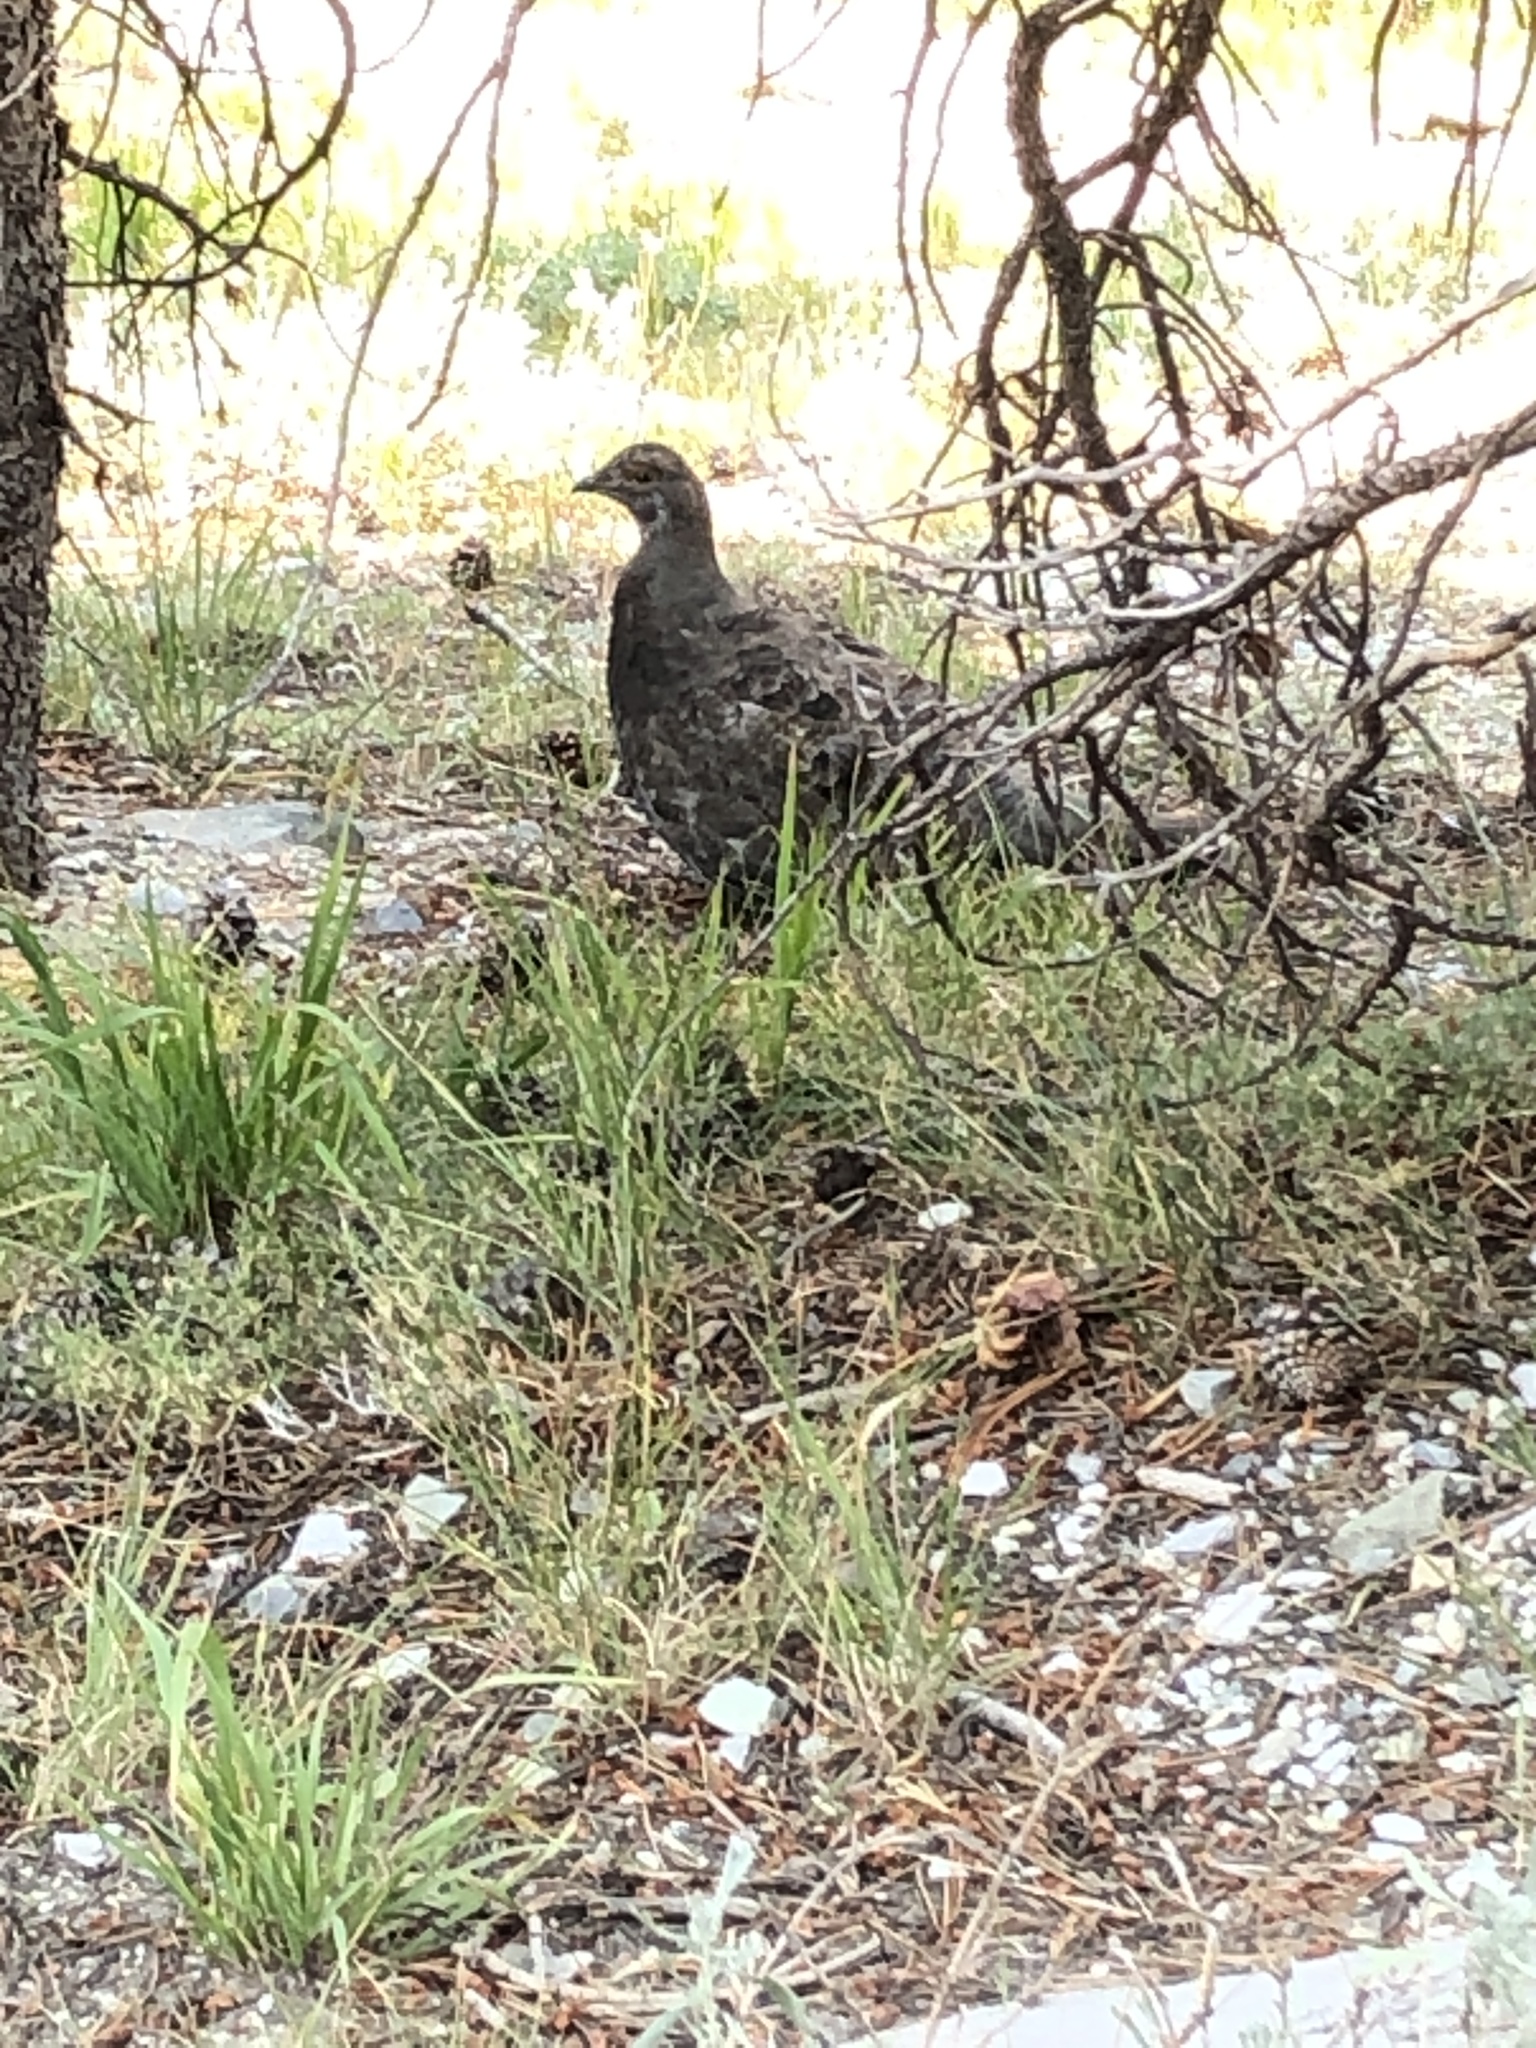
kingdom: Animalia
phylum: Chordata
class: Aves
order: Galliformes
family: Phasianidae
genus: Dendragapus
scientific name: Dendragapus fuliginosus
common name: Sooty grouse
